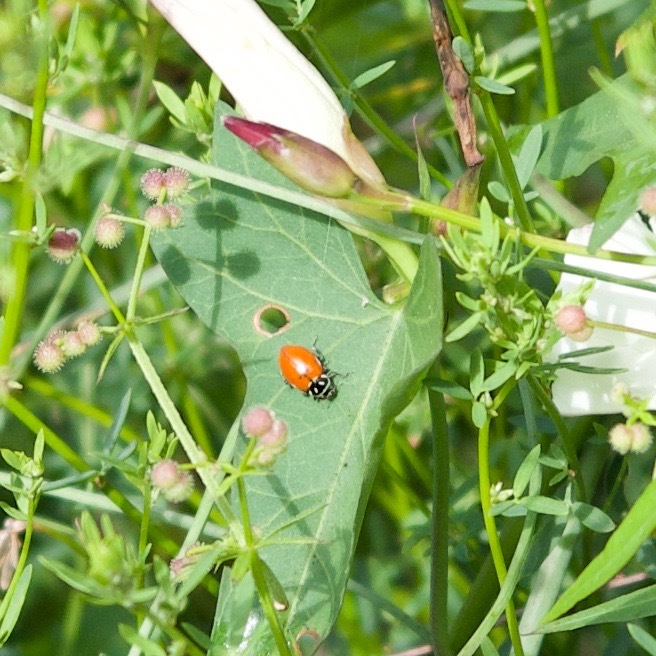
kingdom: Animalia
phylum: Arthropoda
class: Insecta
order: Coleoptera
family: Coccinellidae
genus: Hippodamia
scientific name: Hippodamia convergens
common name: Convergent lady beetle
